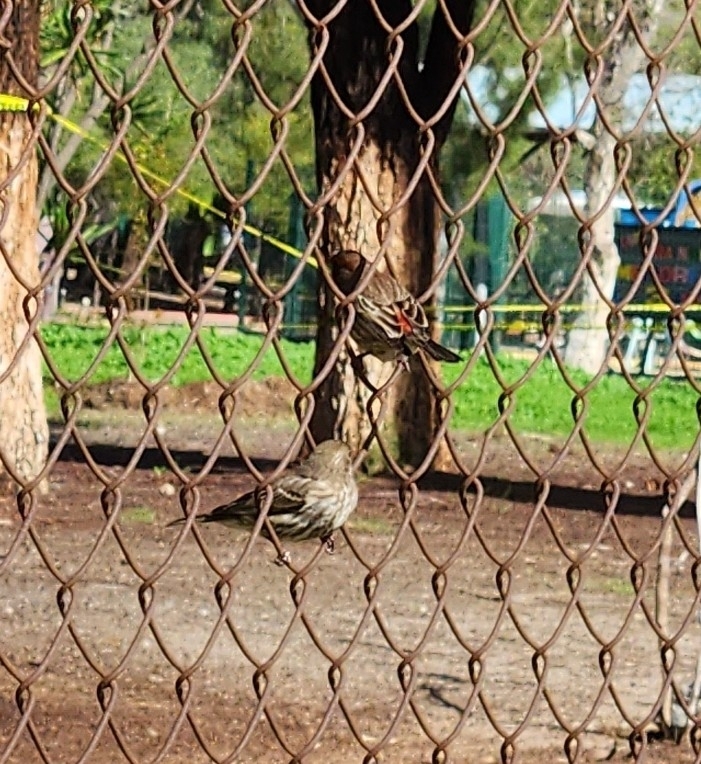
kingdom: Animalia
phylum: Chordata
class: Aves
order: Passeriformes
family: Fringillidae
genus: Haemorhous
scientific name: Haemorhous mexicanus
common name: House finch
